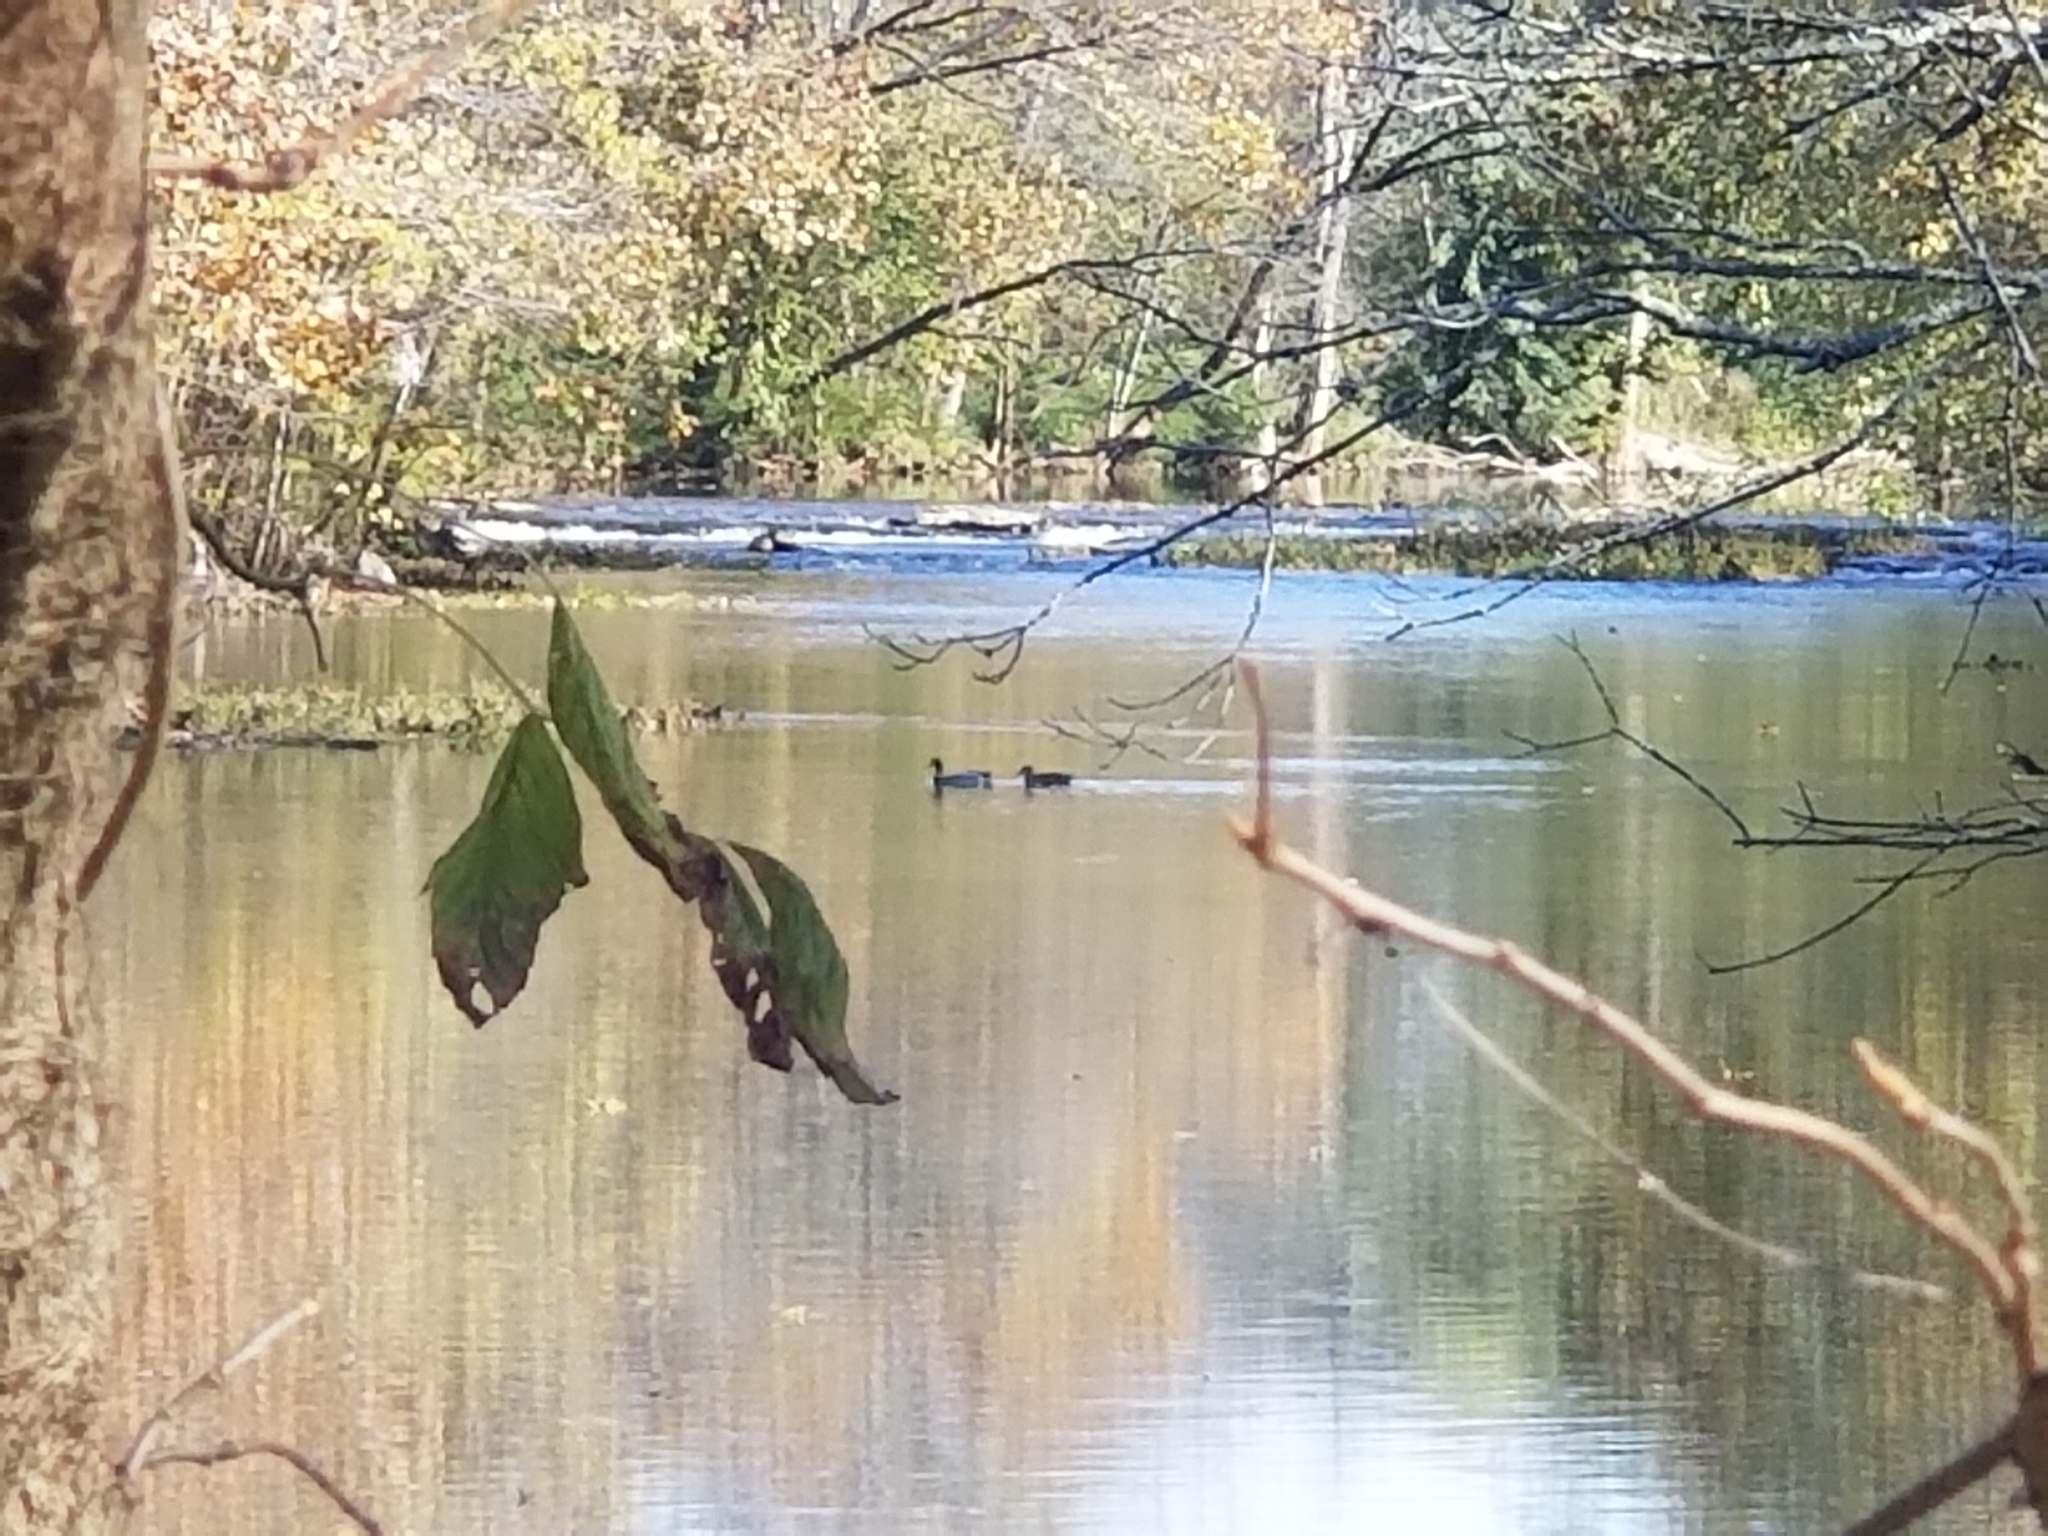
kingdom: Animalia
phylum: Chordata
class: Aves
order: Anseriformes
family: Anatidae
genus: Anas
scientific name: Anas platyrhynchos
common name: Mallard
